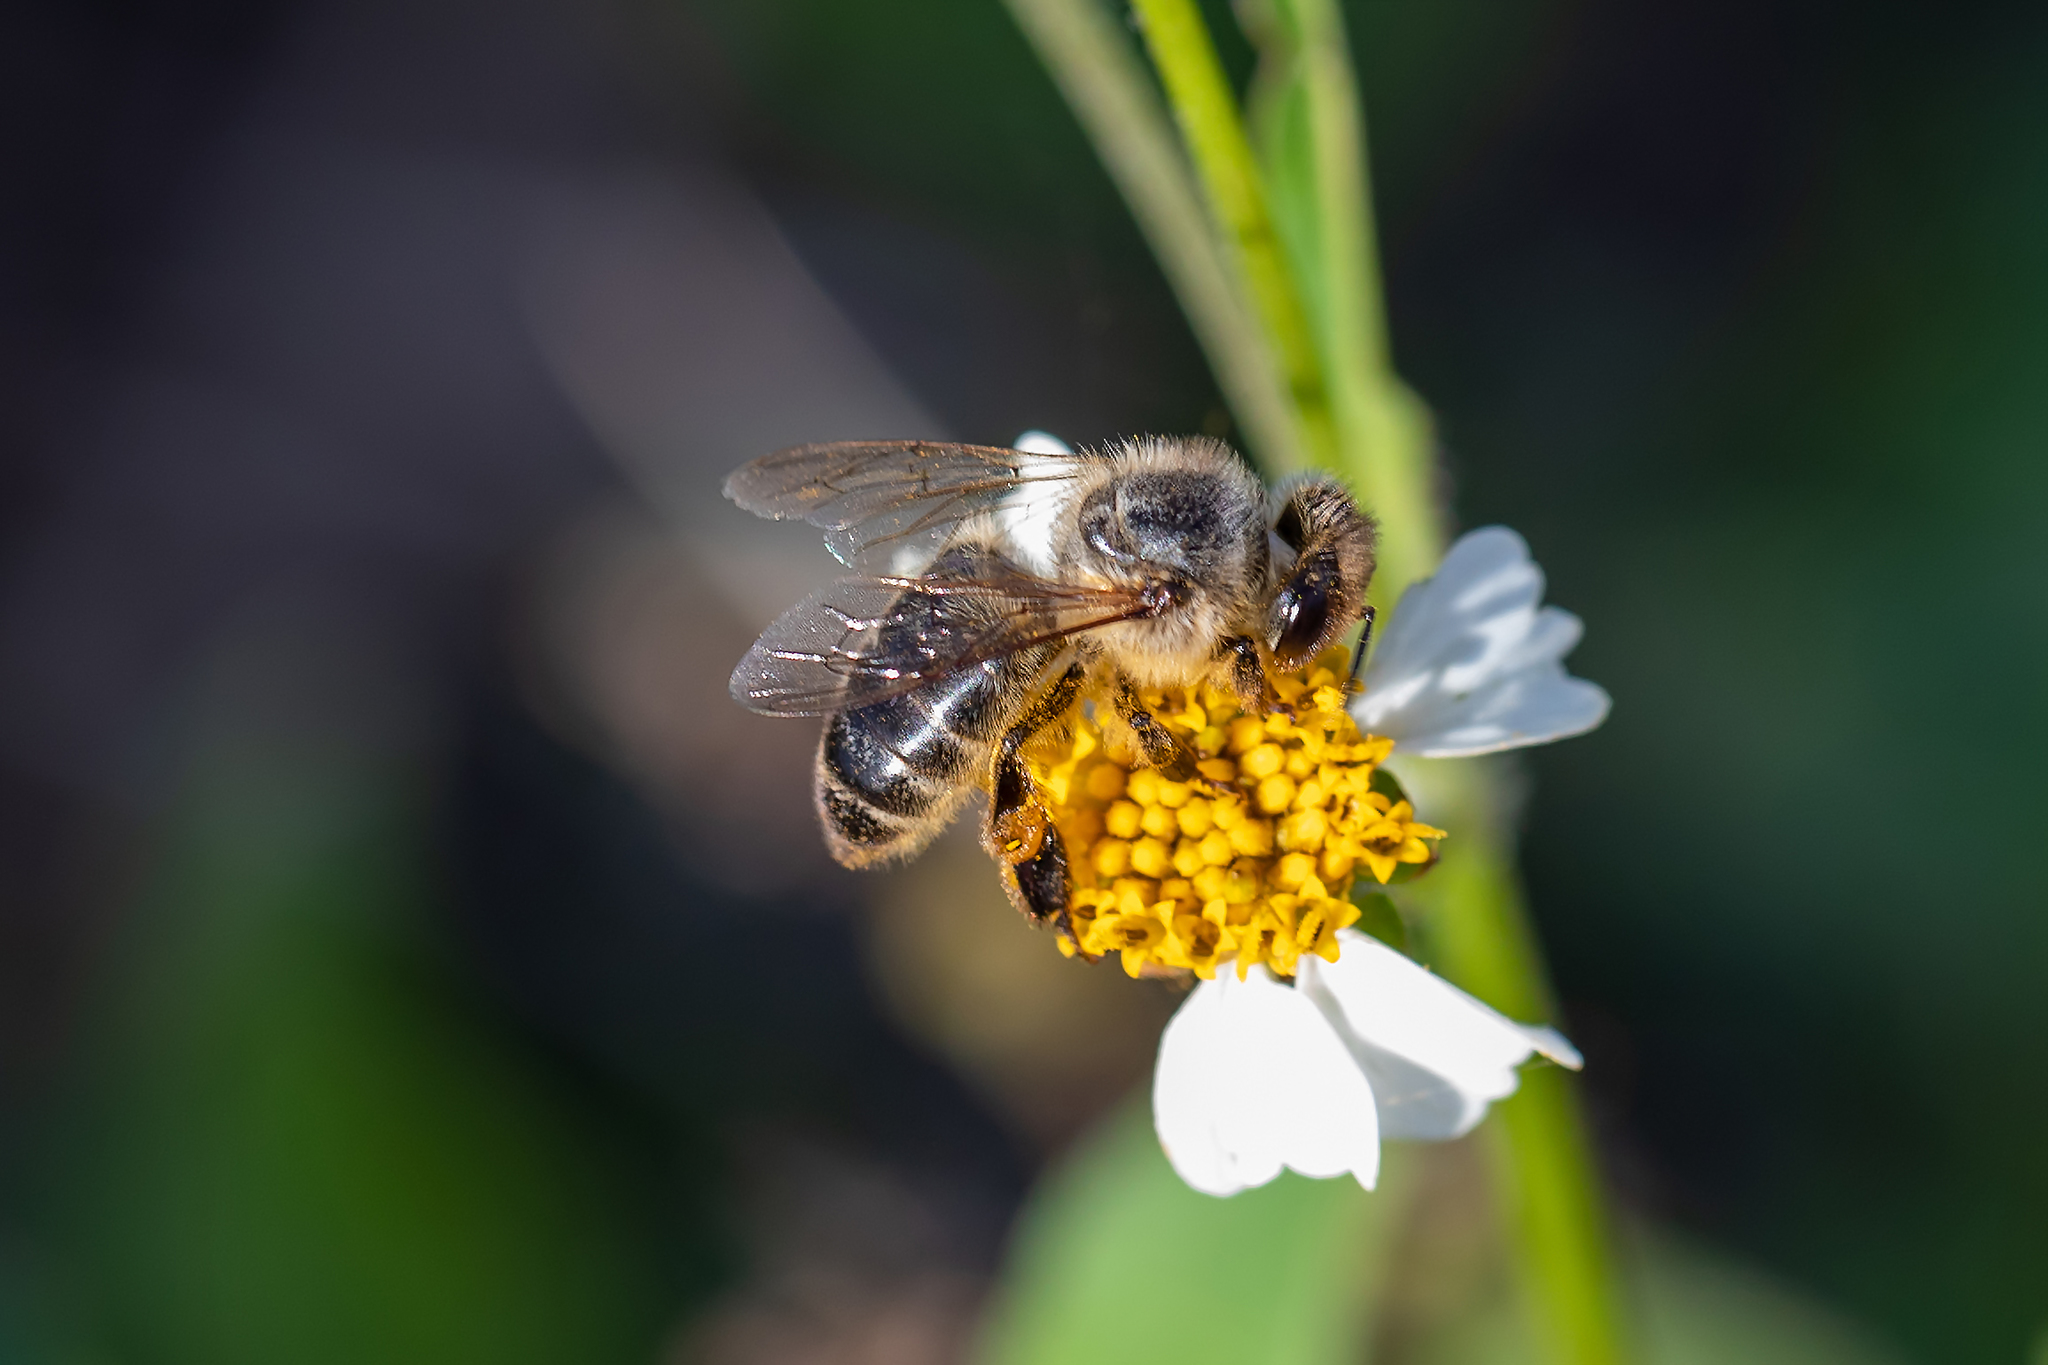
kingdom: Animalia
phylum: Arthropoda
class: Insecta
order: Hymenoptera
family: Apidae
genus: Apis
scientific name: Apis mellifera
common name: Honey bee
